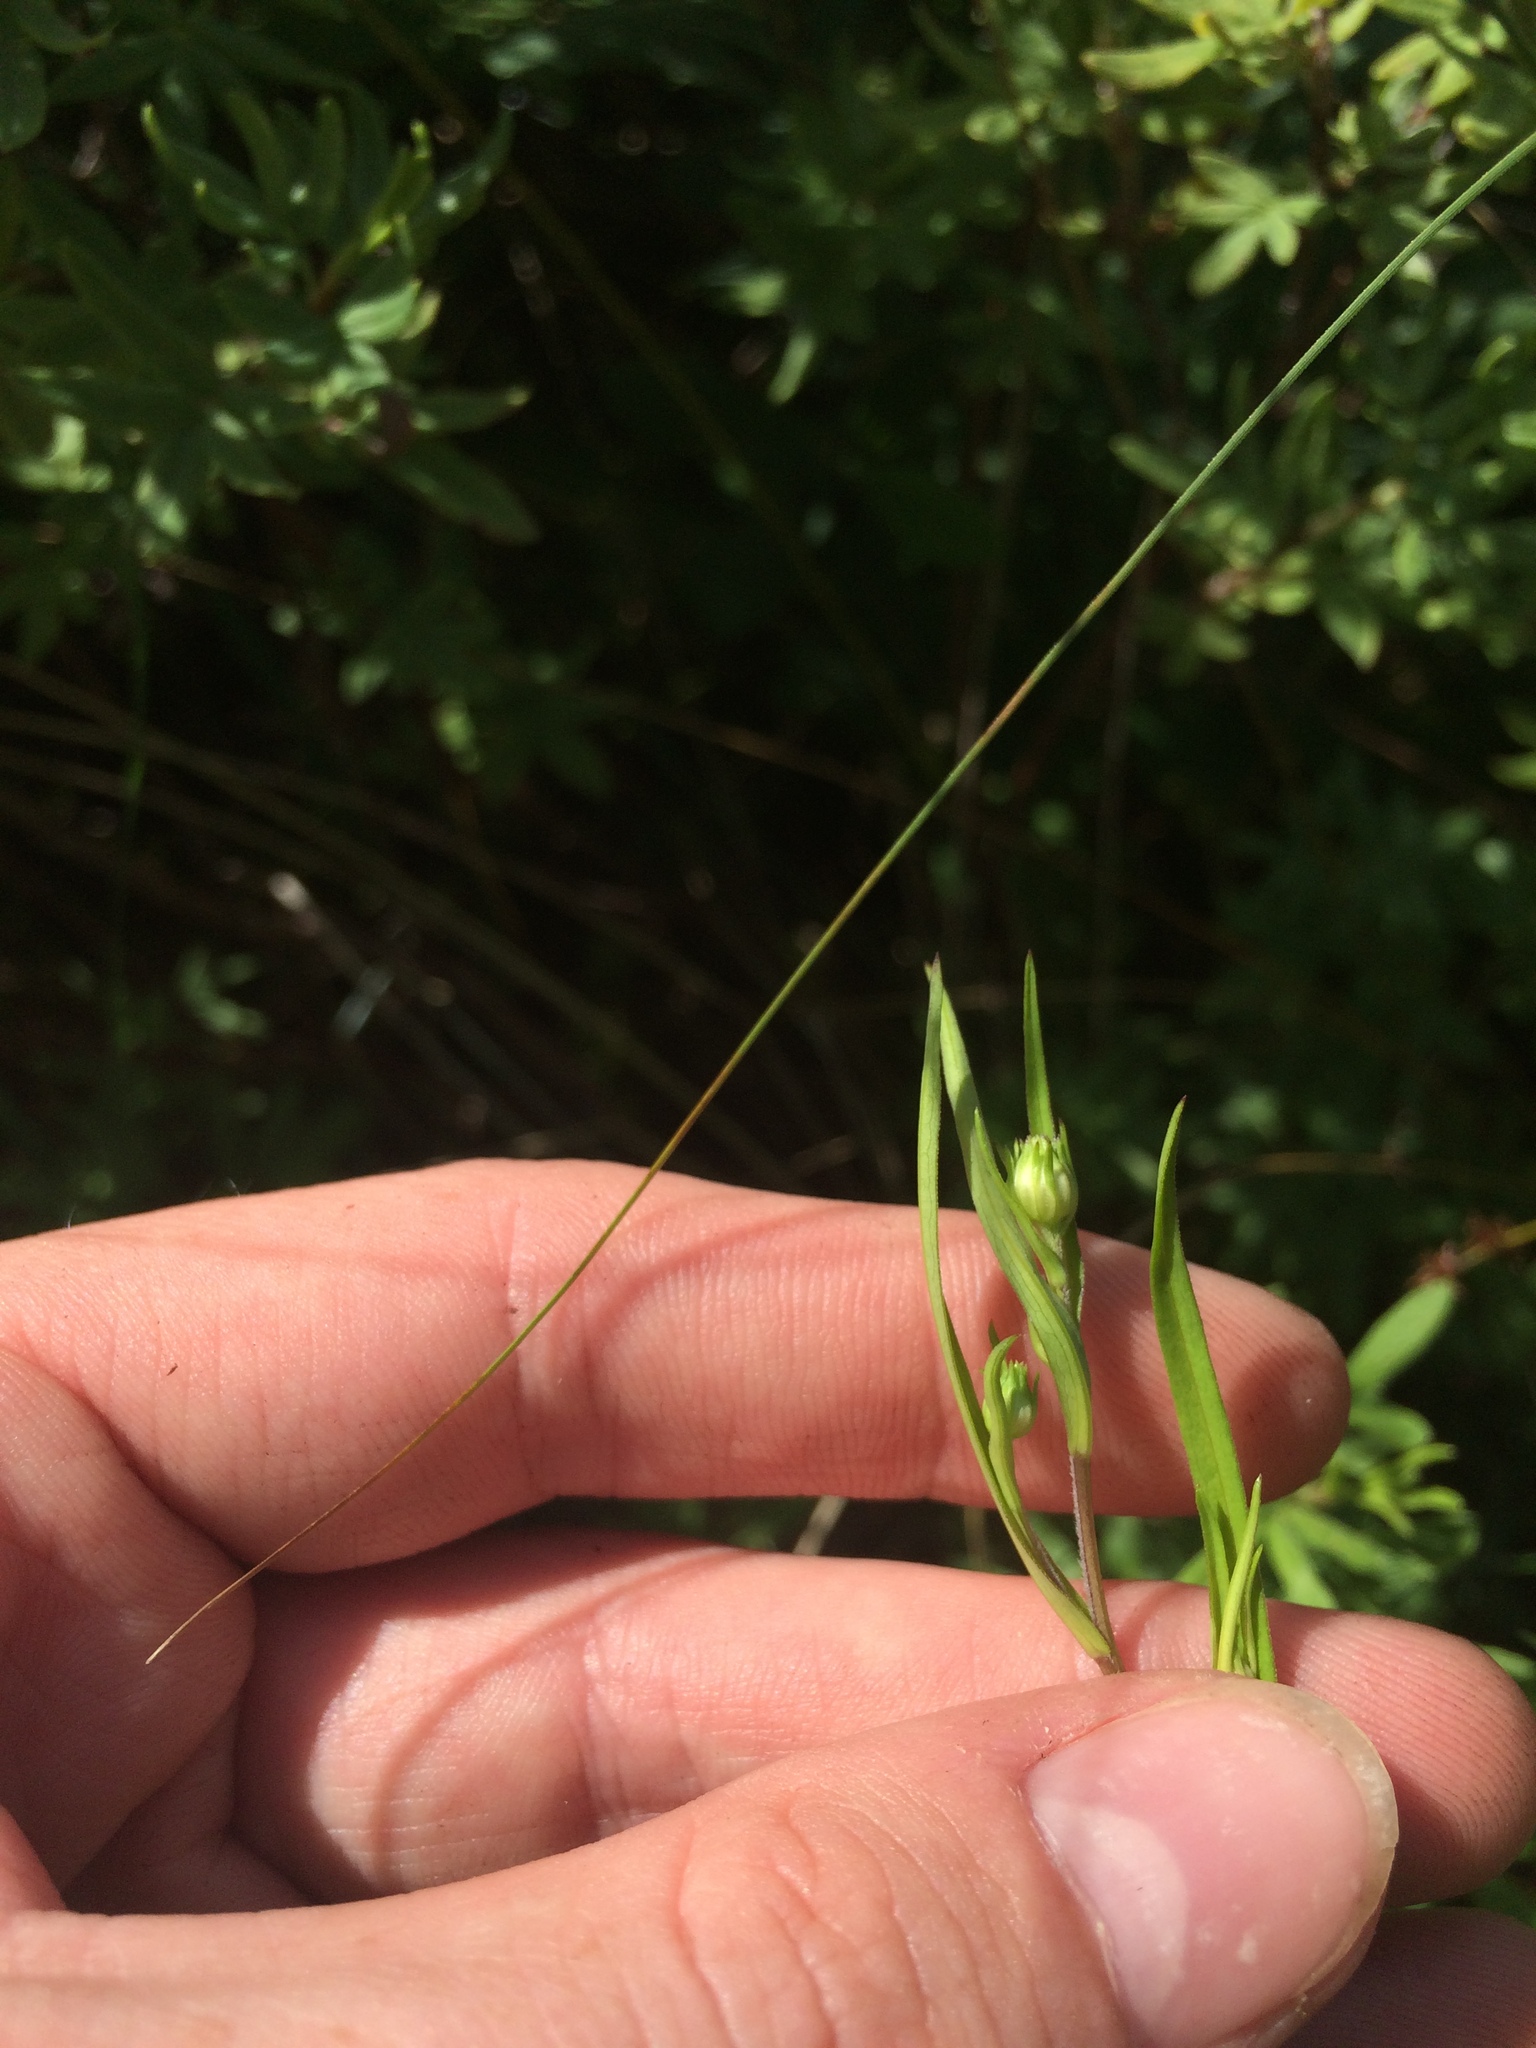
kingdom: Plantae
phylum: Tracheophyta
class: Magnoliopsida
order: Asterales
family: Asteraceae
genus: Symphyotrichum
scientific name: Symphyotrichum boreale
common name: Northern bog aster
